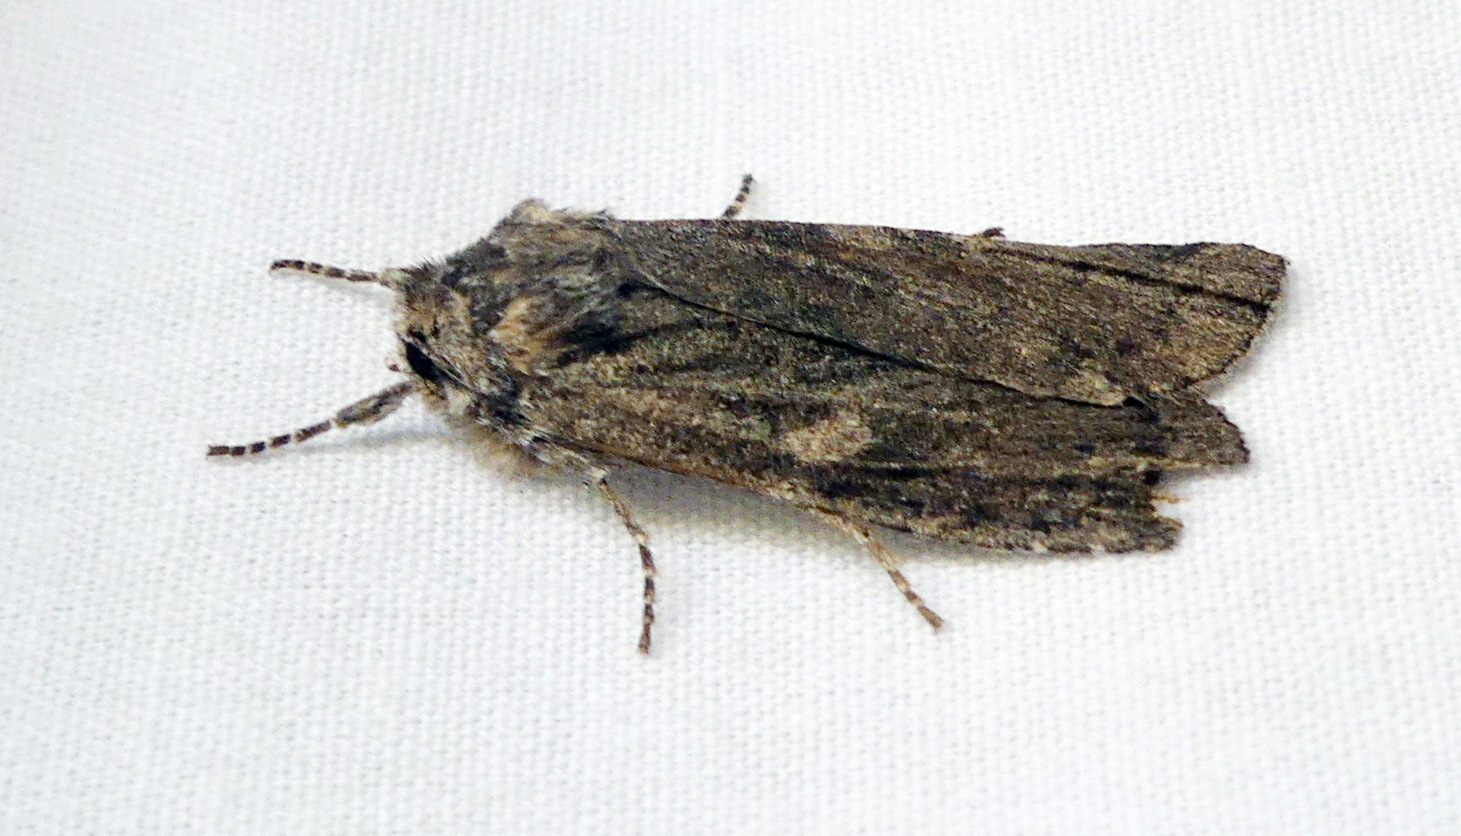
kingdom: Animalia
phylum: Arthropoda
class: Insecta
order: Lepidoptera
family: Noctuidae
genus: Lithophane
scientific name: Lithophane unimoda
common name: Dowdy pinion
